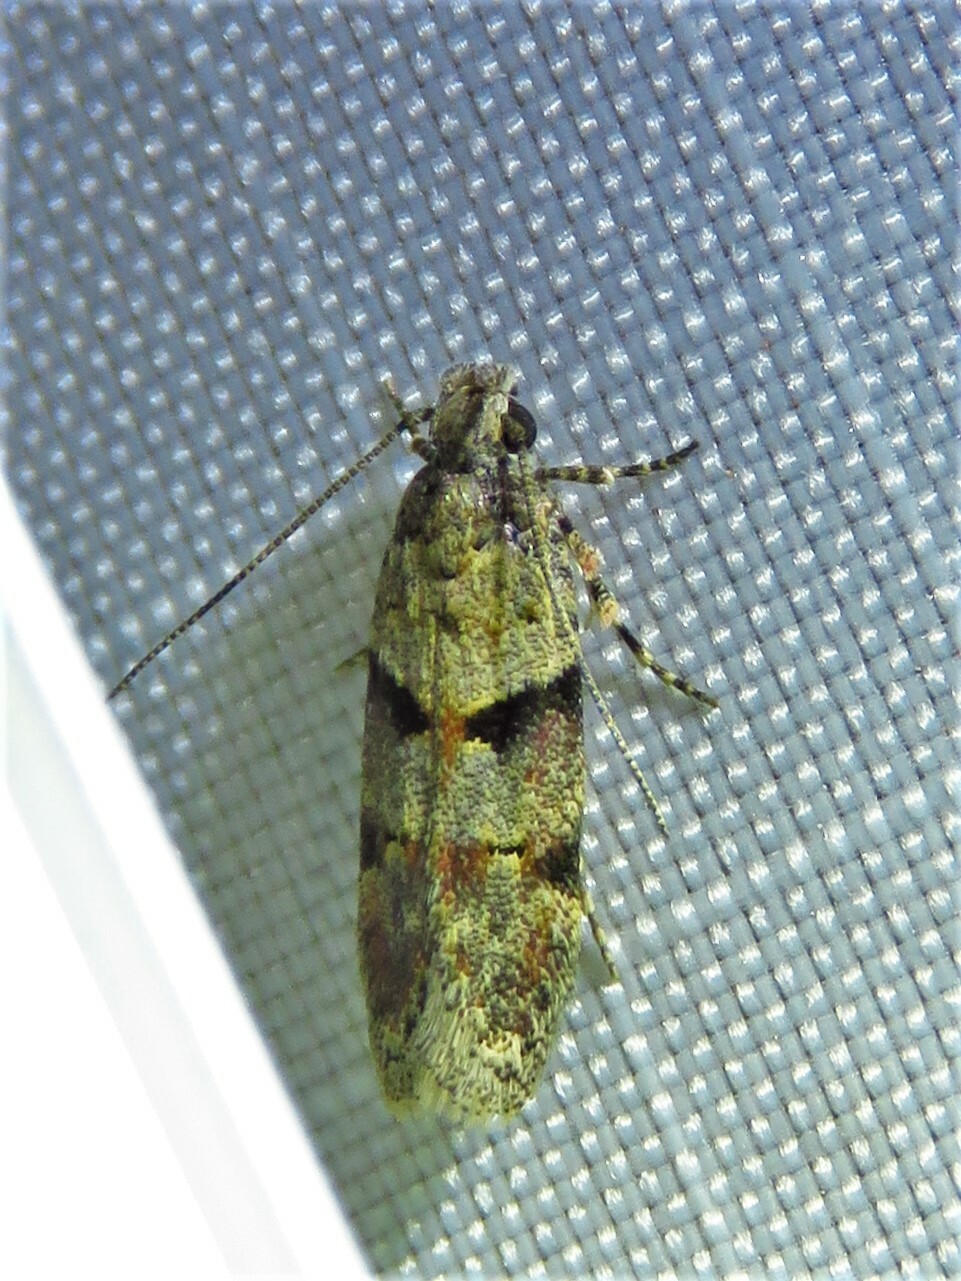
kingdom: Animalia
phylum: Arthropoda
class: Insecta
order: Lepidoptera
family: Gelechiidae
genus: Faculta
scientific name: Faculta inaequalis
